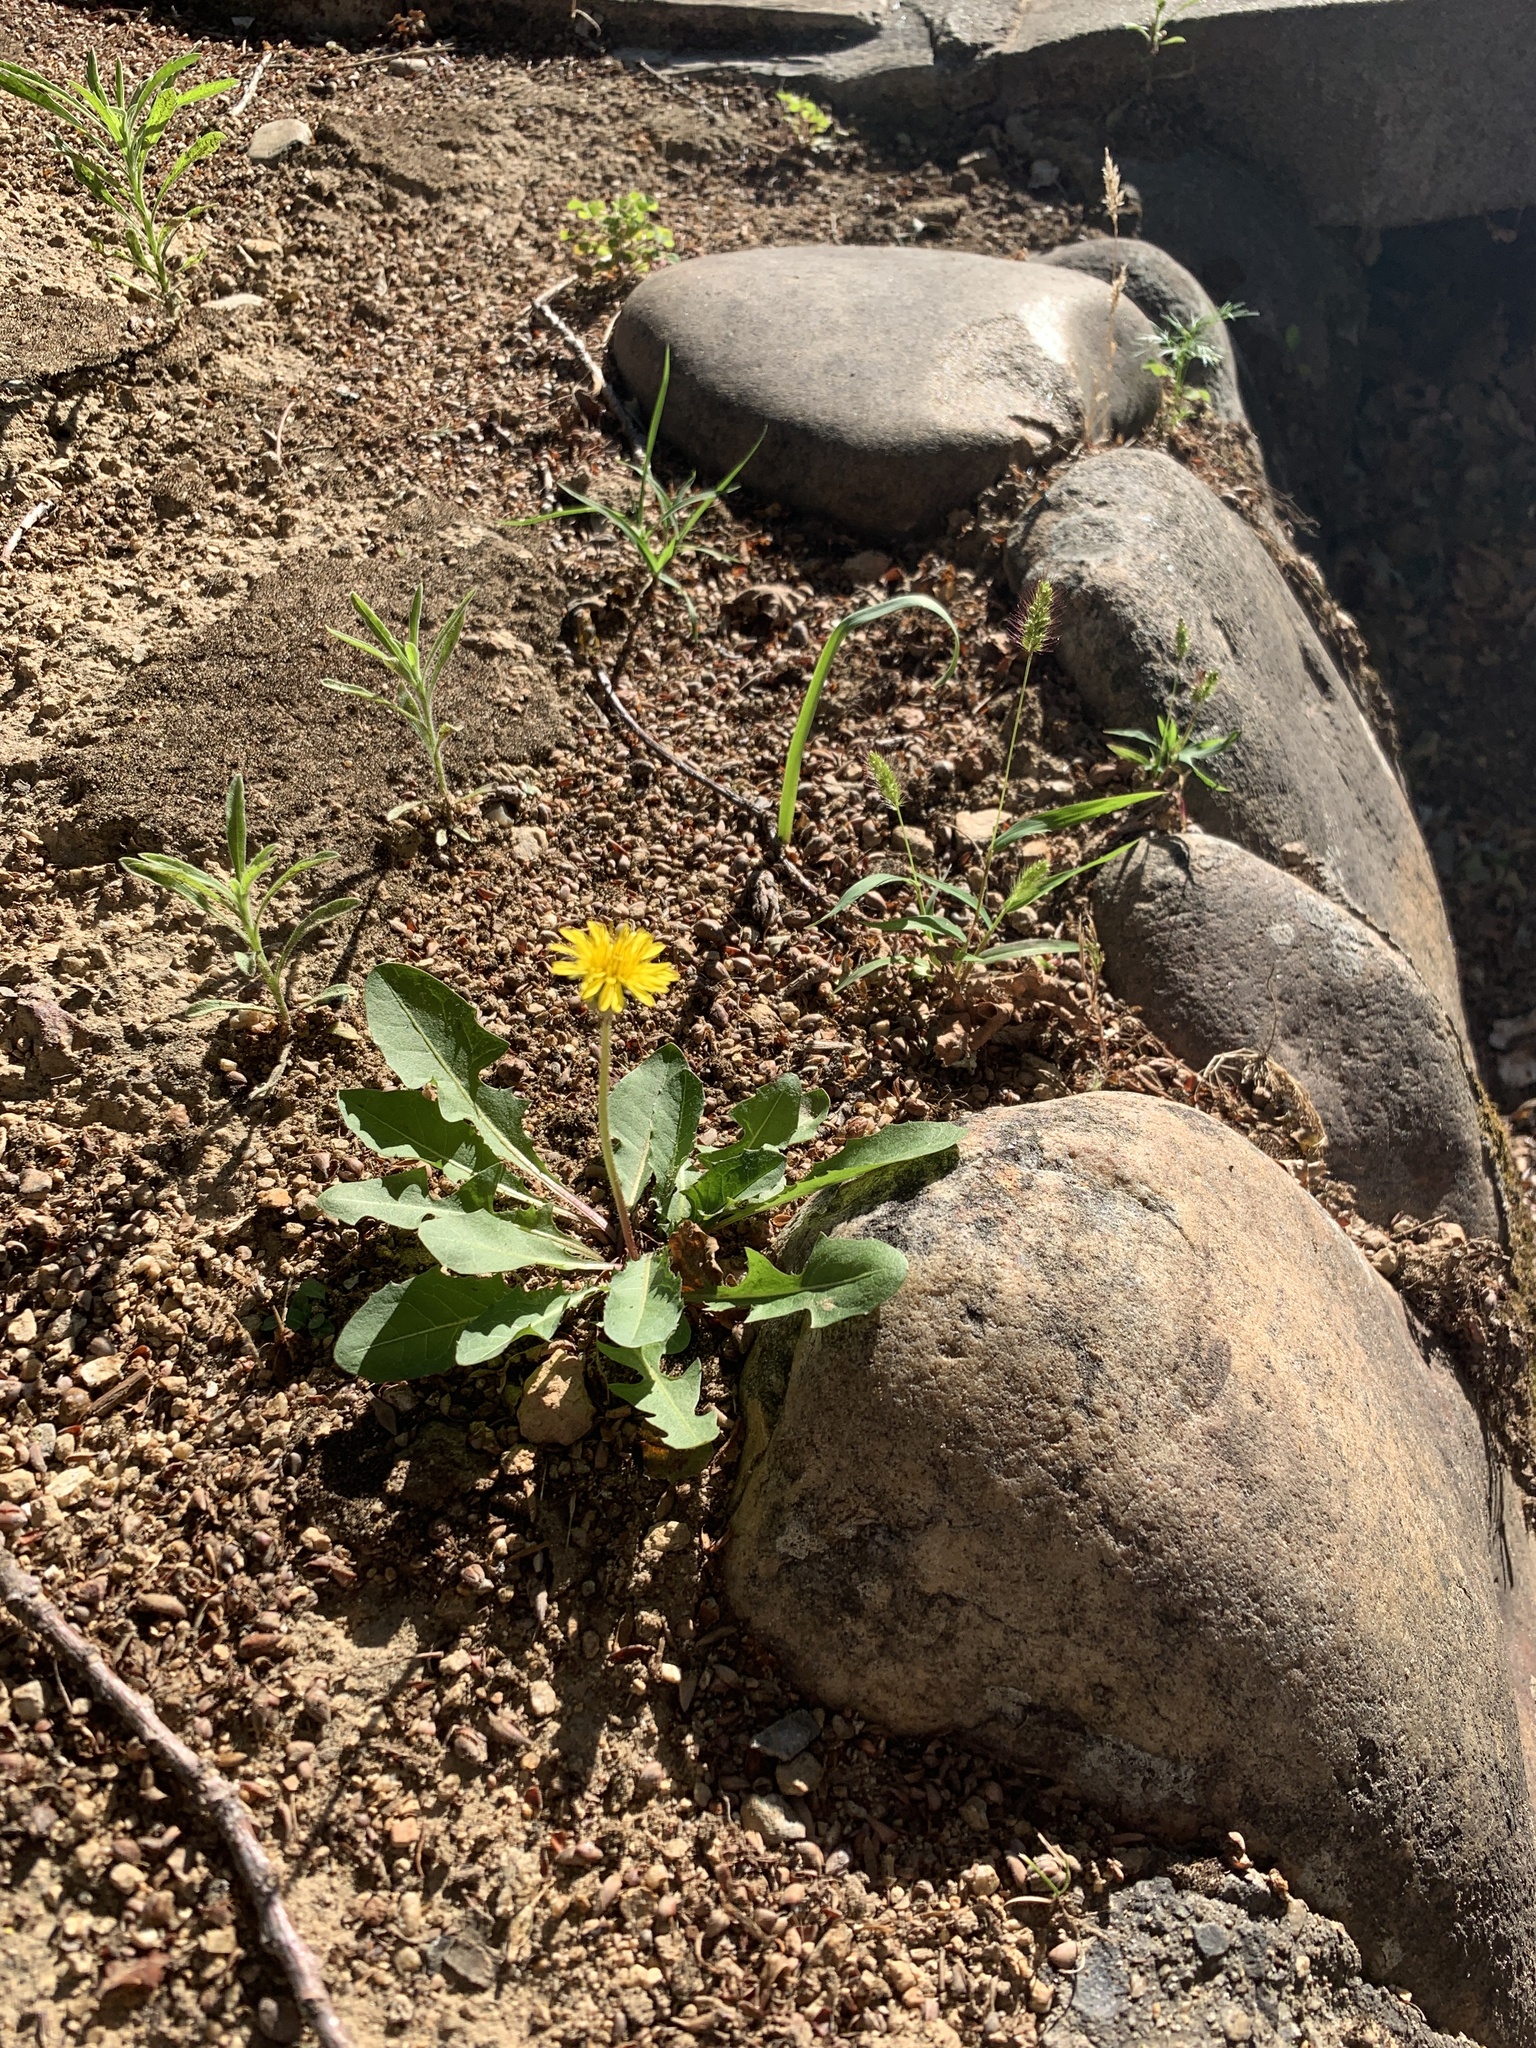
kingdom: Plantae
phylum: Tracheophyta
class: Magnoliopsida
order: Asterales
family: Asteraceae
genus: Taraxacum
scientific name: Taraxacum officinale
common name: Common dandelion
